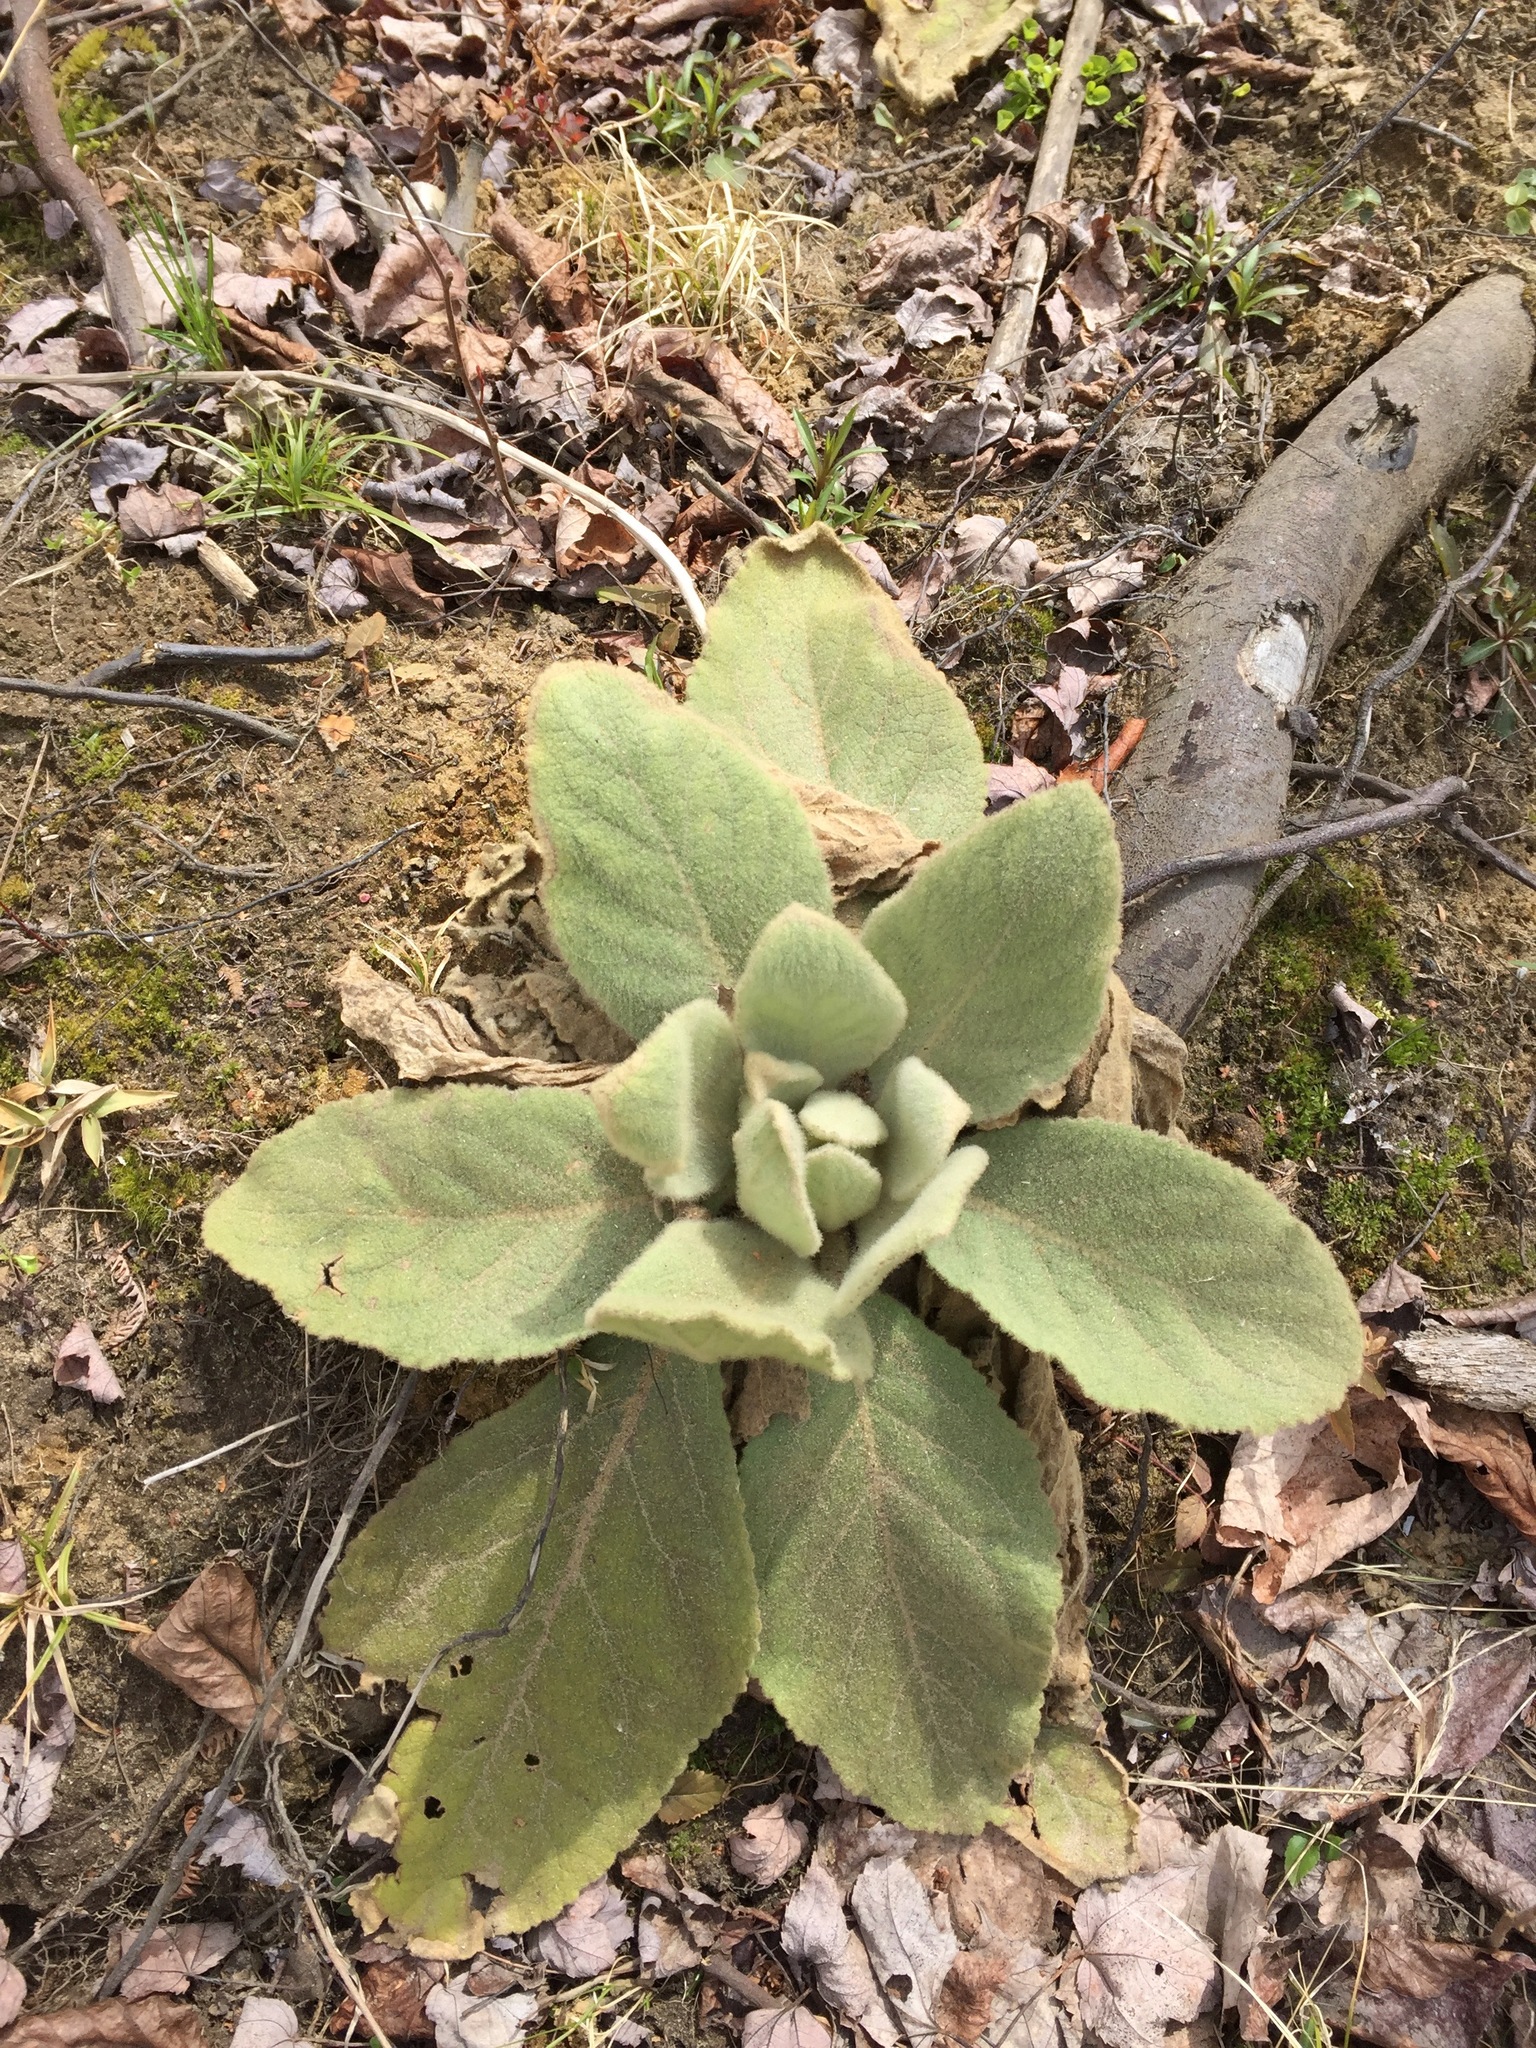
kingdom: Plantae
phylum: Tracheophyta
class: Magnoliopsida
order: Lamiales
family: Scrophulariaceae
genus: Verbascum
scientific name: Verbascum thapsus
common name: Common mullein
